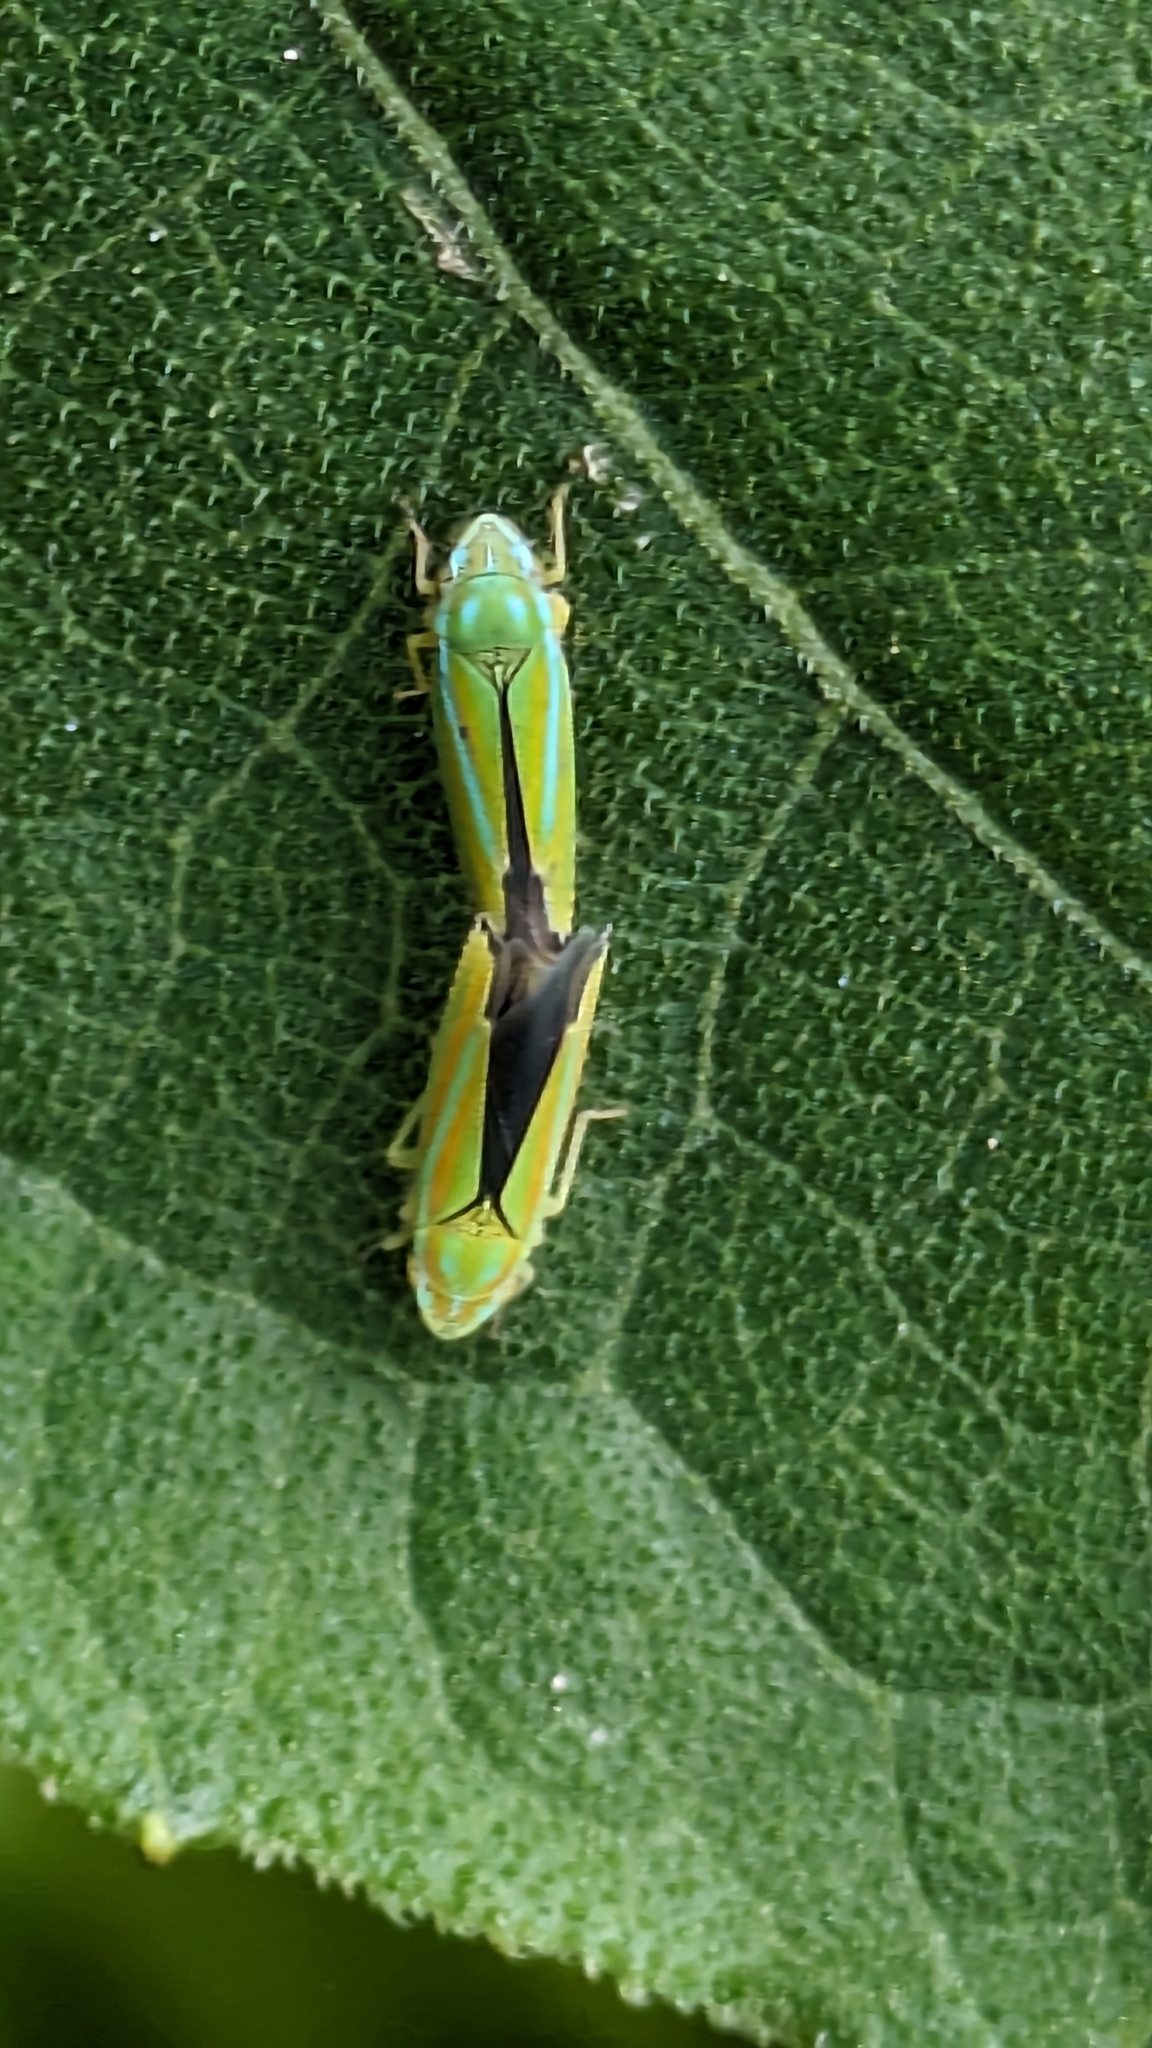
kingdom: Animalia
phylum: Arthropoda
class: Insecta
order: Hemiptera
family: Cicadellidae
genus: Graphocephala
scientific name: Graphocephala versuta
